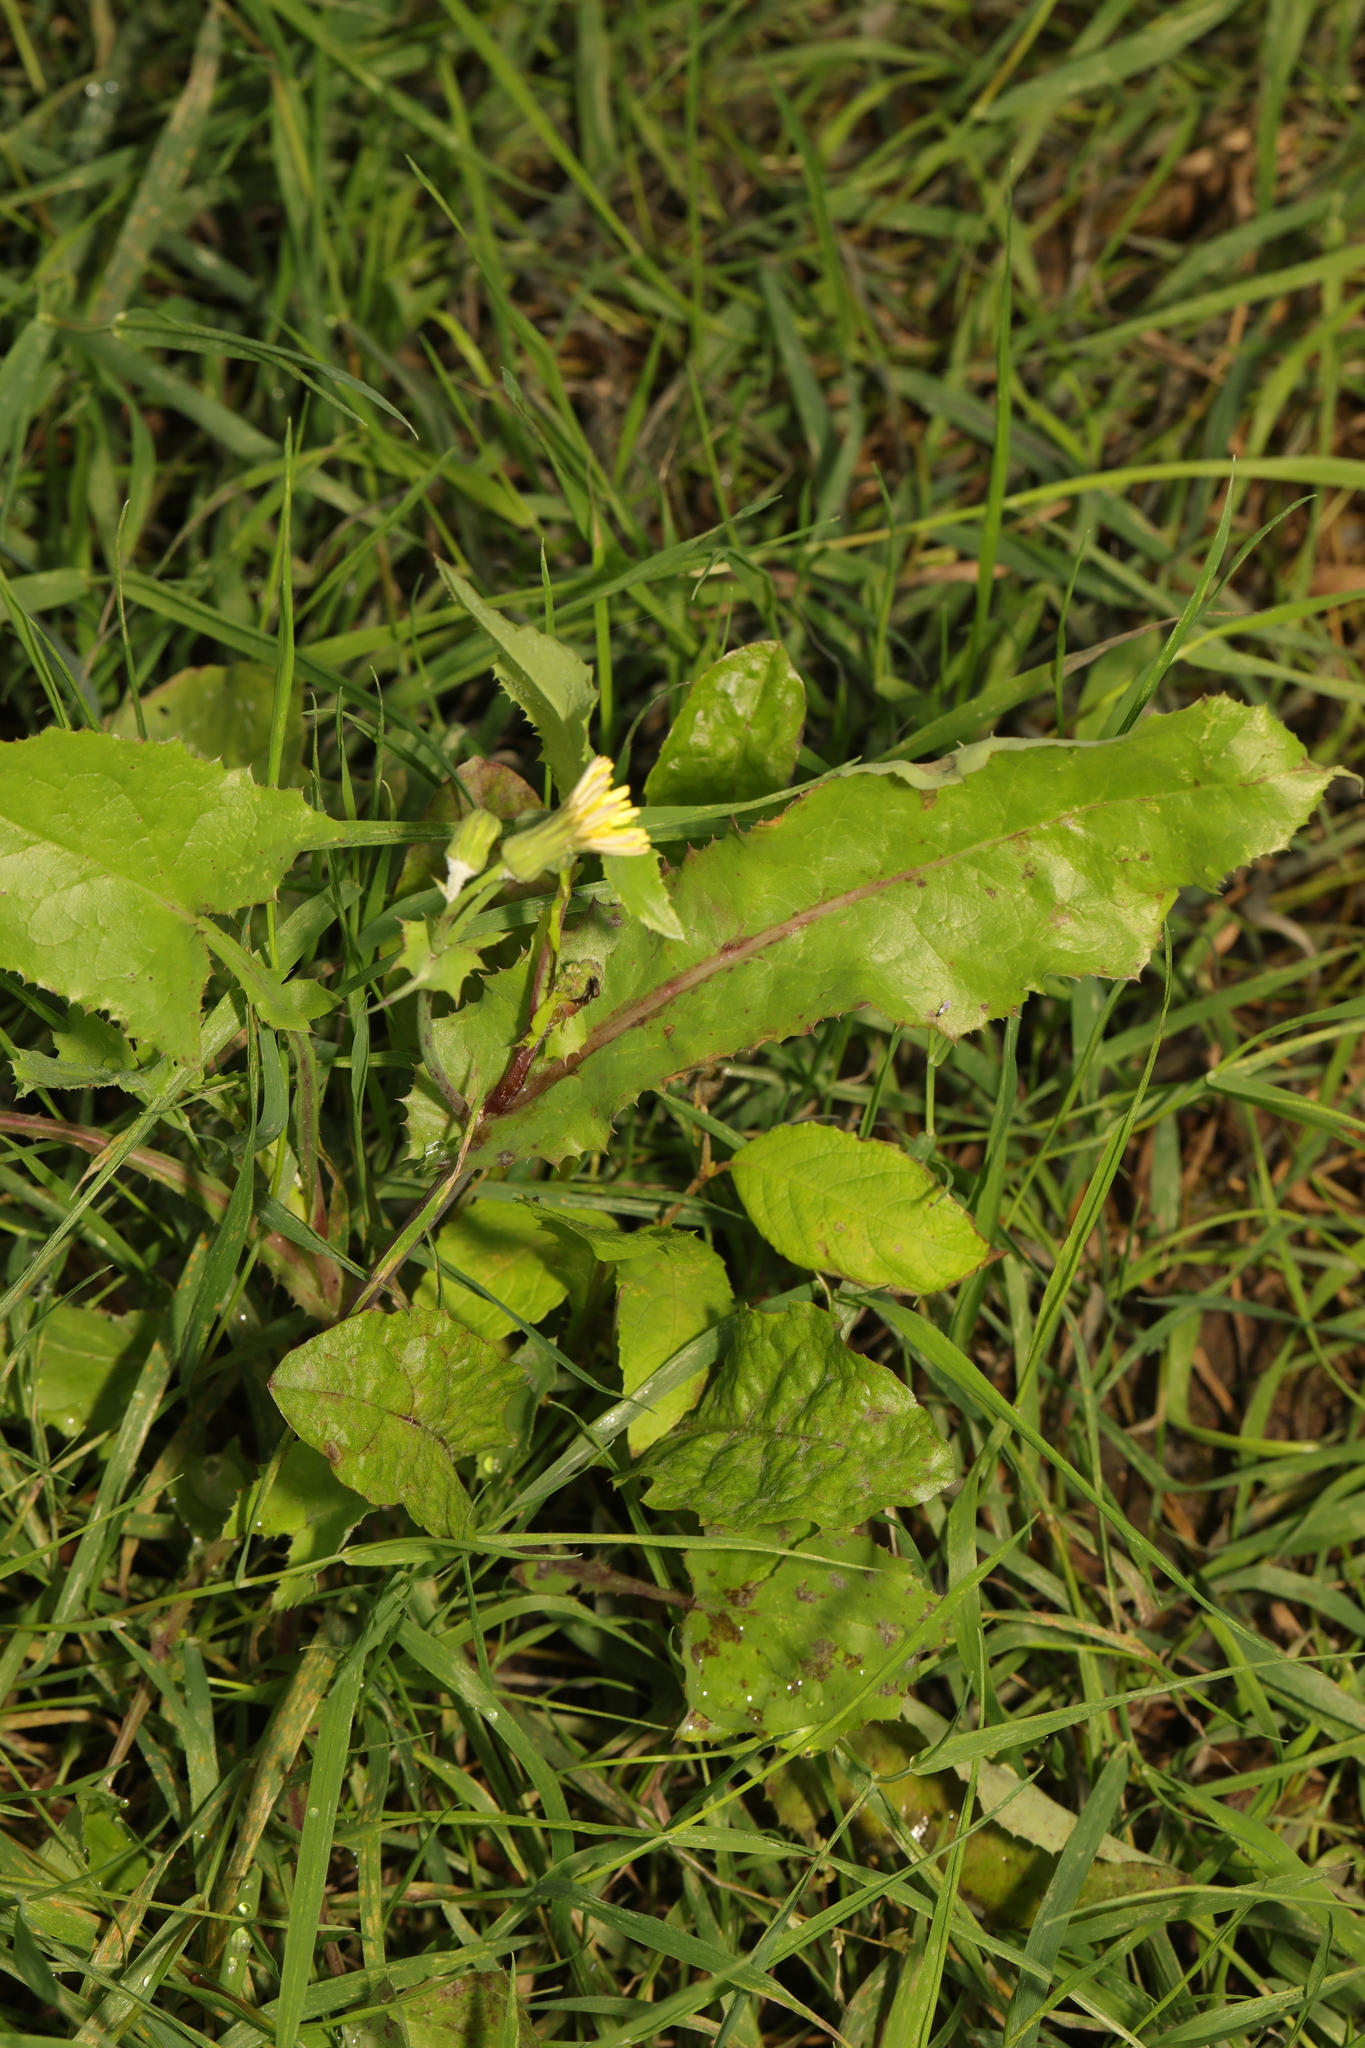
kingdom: Plantae
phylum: Tracheophyta
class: Magnoliopsida
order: Asterales
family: Asteraceae
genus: Sonchus
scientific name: Sonchus oleraceus
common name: Common sowthistle
